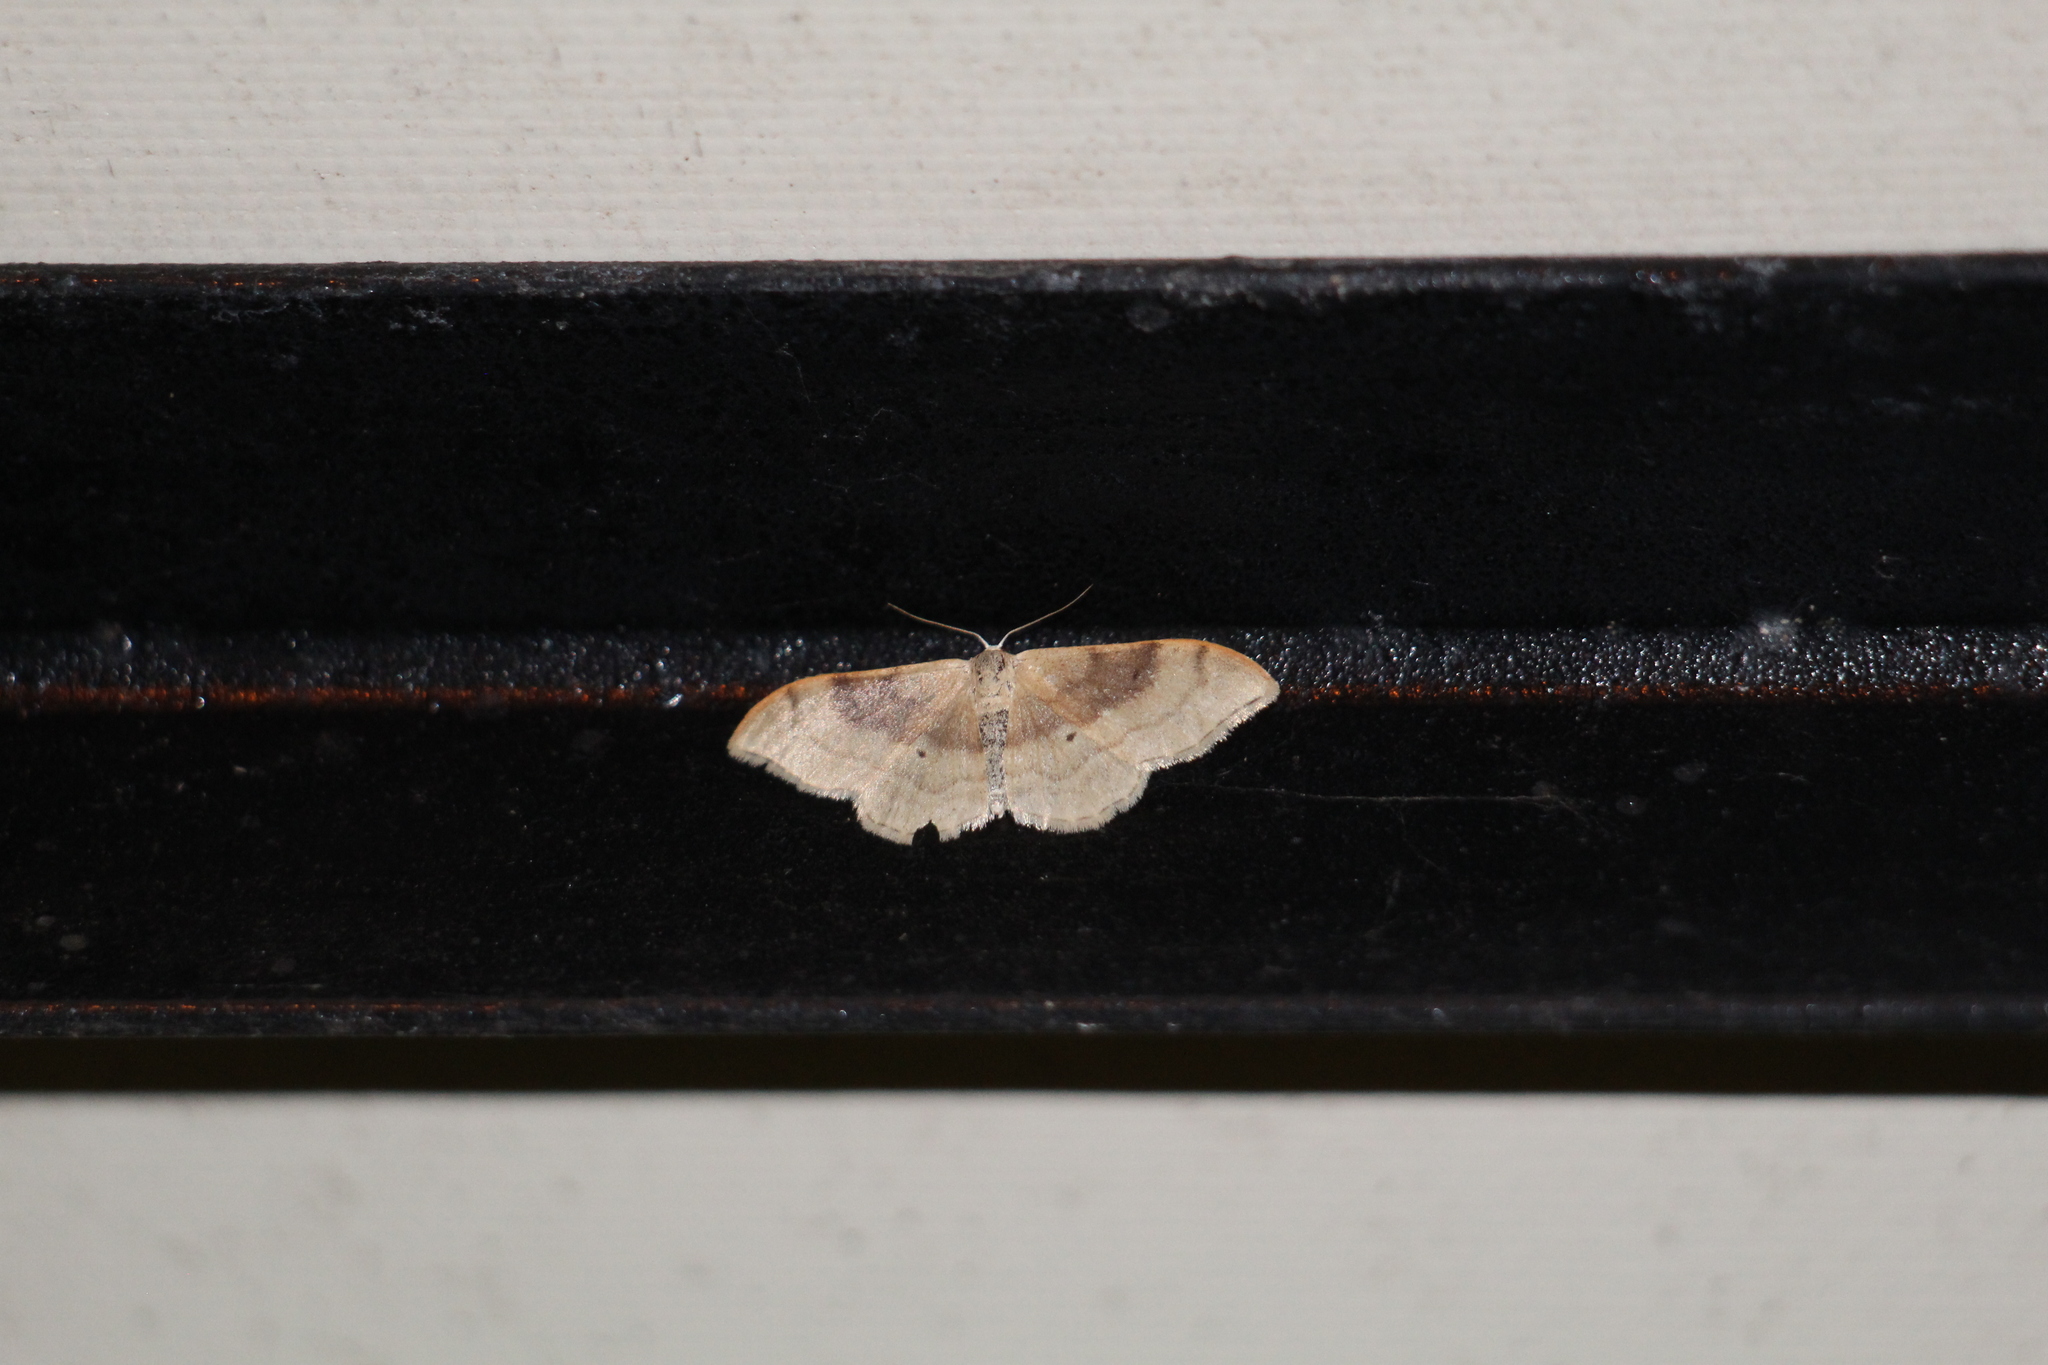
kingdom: Animalia
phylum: Arthropoda
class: Insecta
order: Lepidoptera
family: Geometridae
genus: Idaea
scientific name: Idaea degeneraria
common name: Portland ribbon wave
